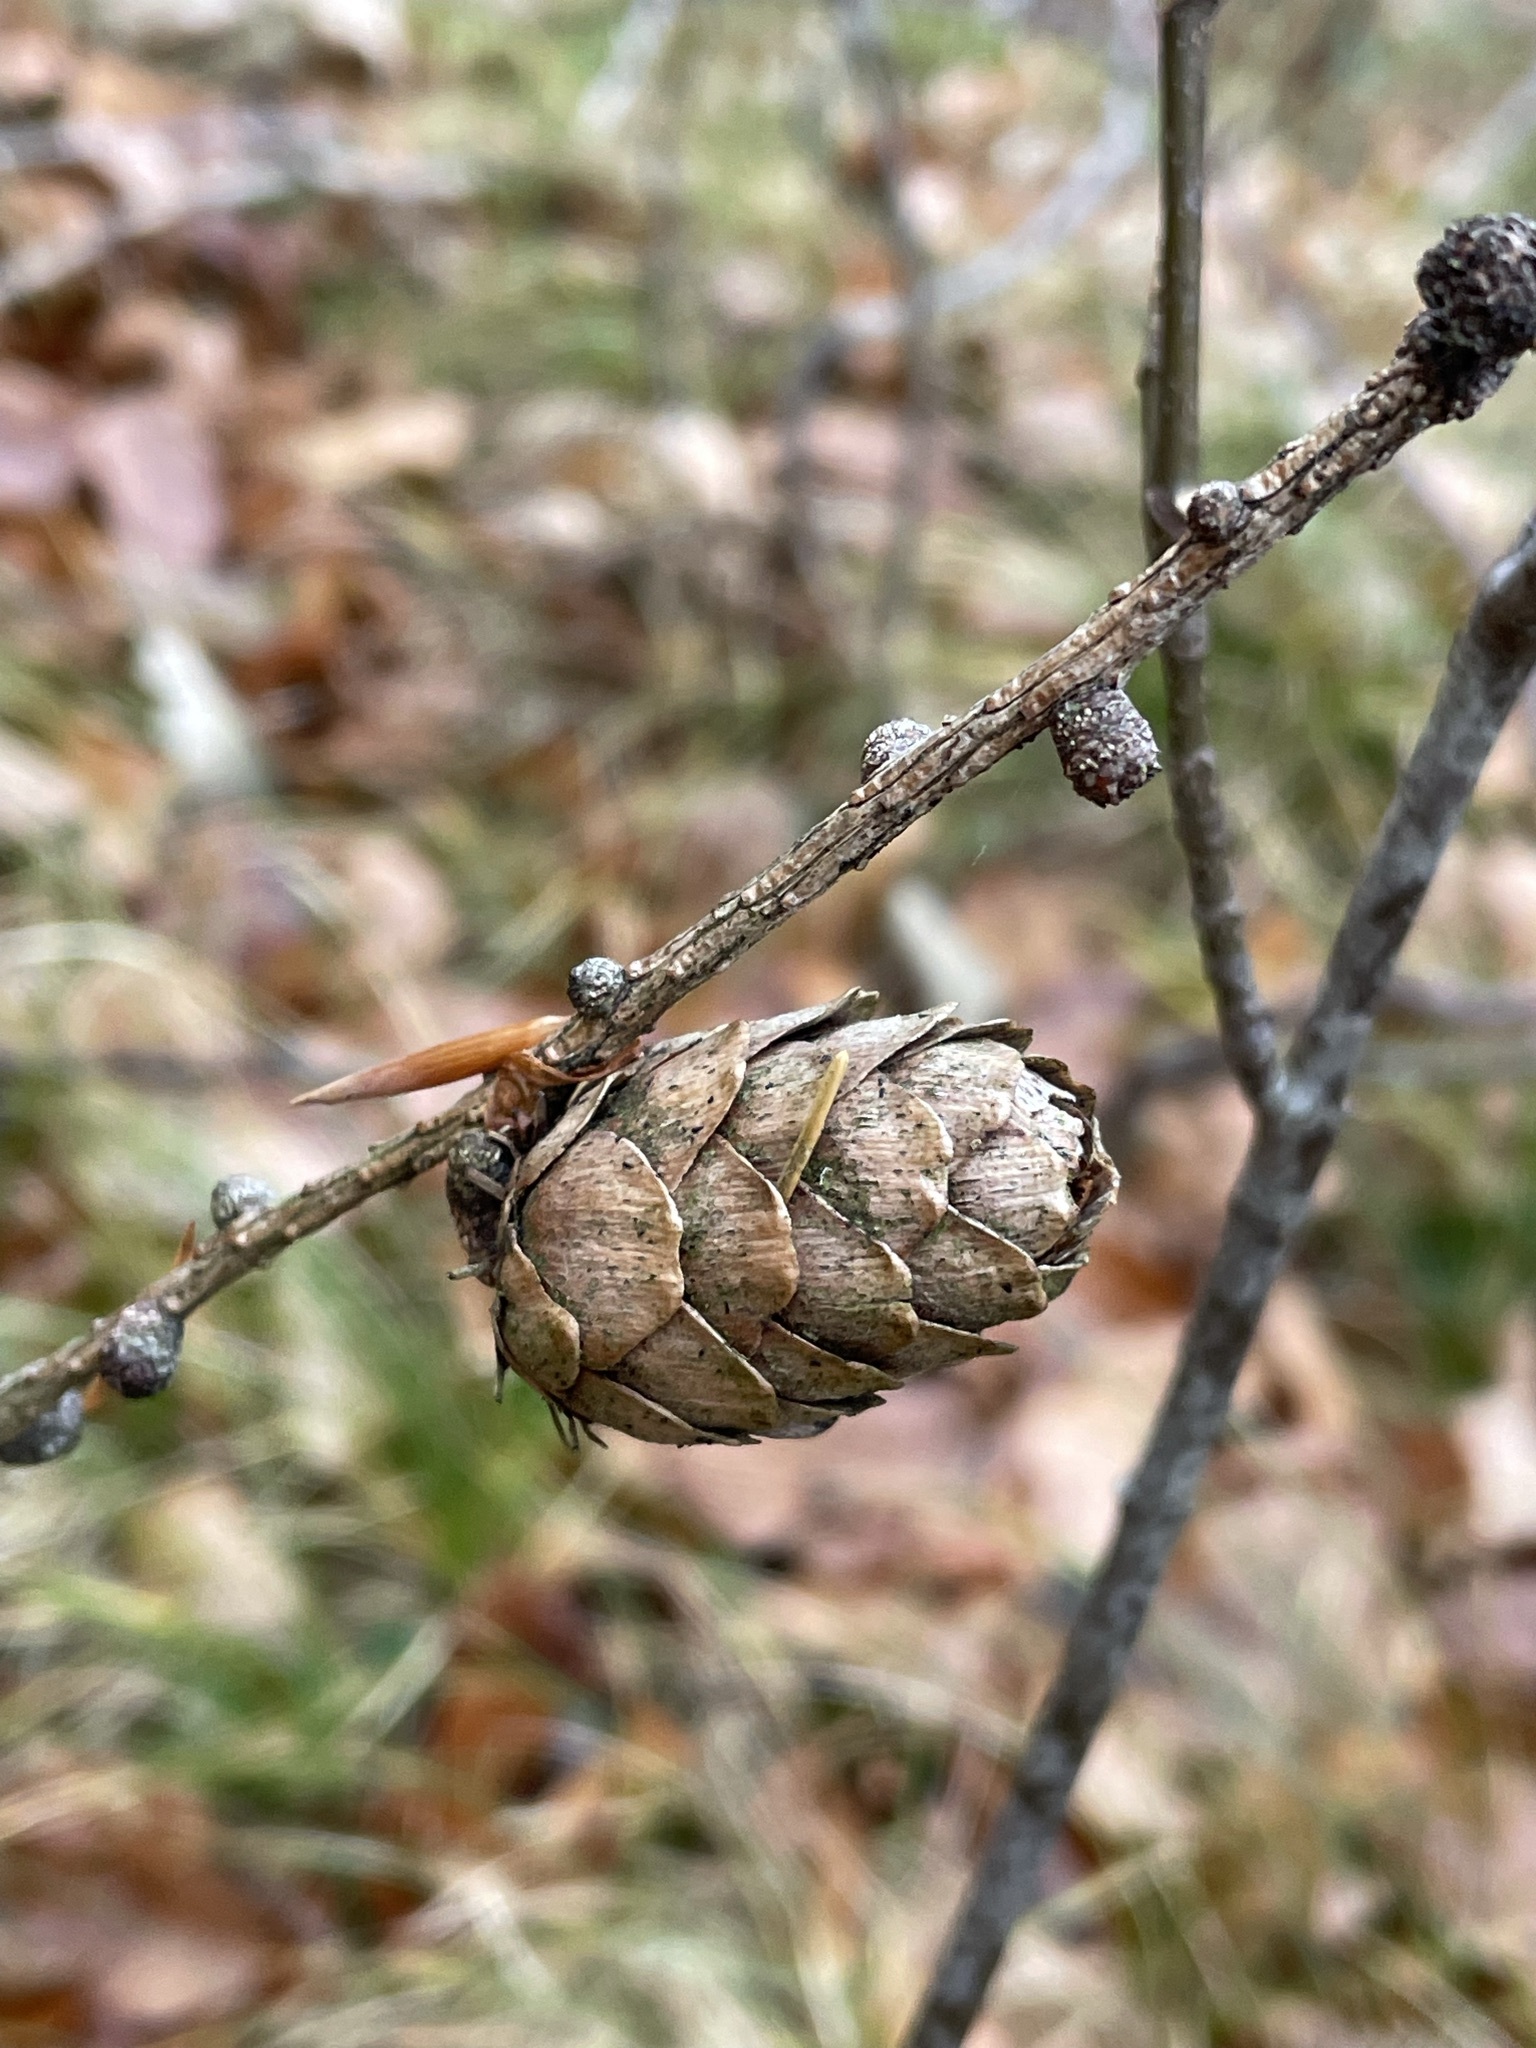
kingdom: Plantae
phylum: Tracheophyta
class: Pinopsida
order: Pinales
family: Pinaceae
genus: Larix
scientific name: Larix decidua
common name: European larch
